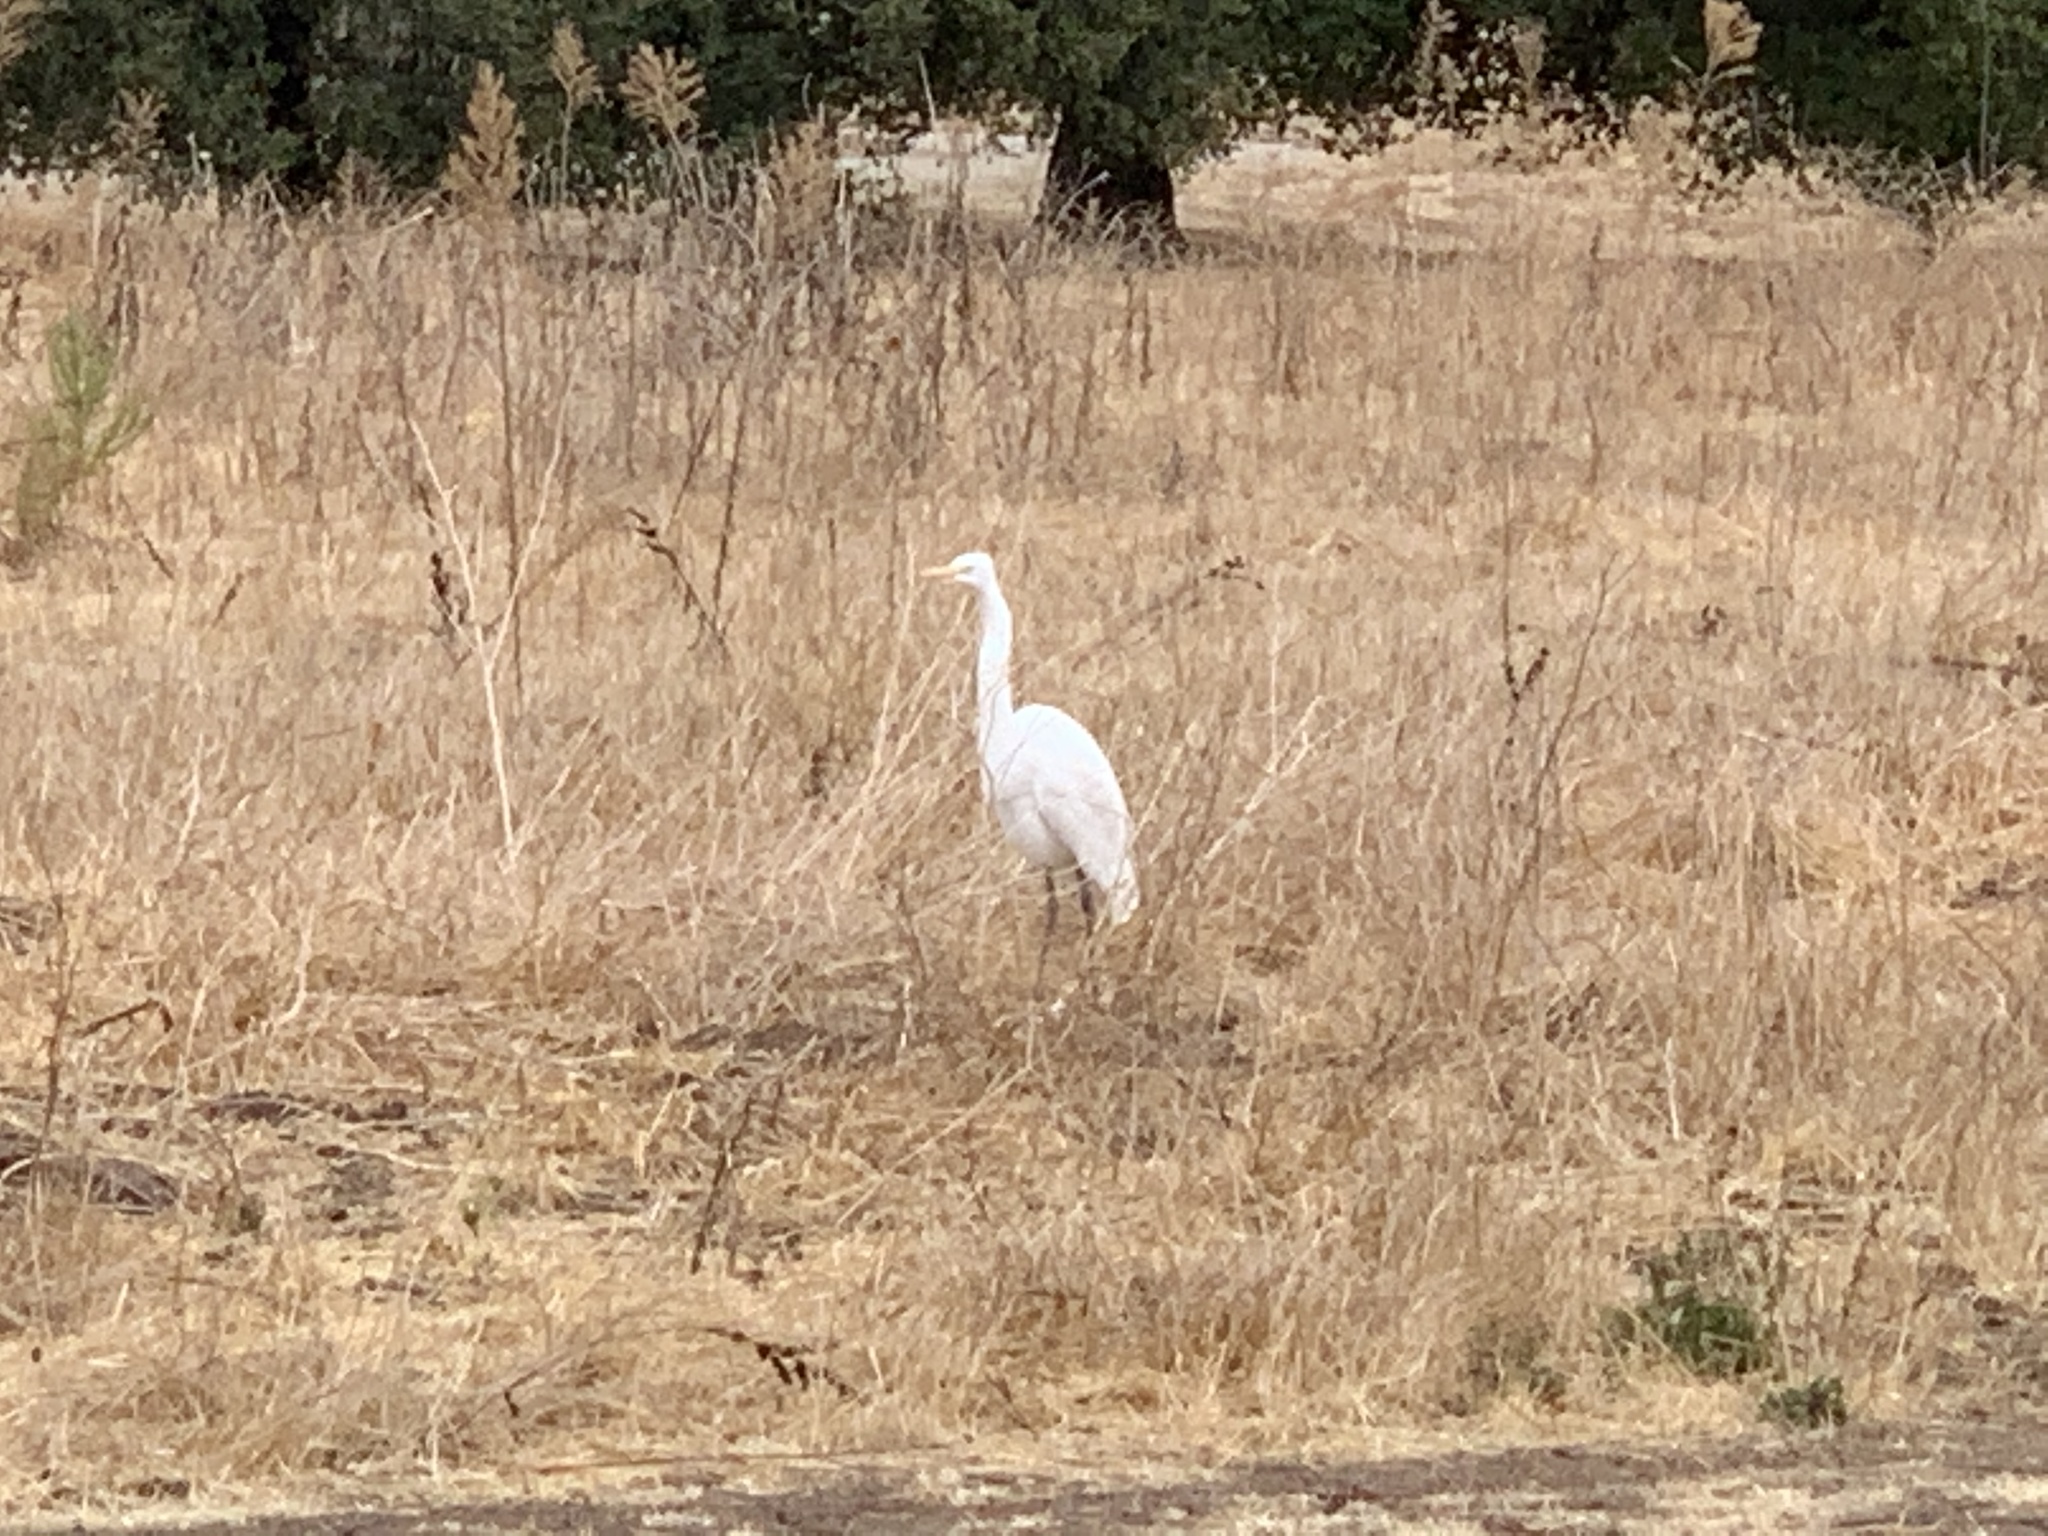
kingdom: Animalia
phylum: Chordata
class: Aves
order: Pelecaniformes
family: Ardeidae
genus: Ardea
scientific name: Ardea alba
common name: Great egret
